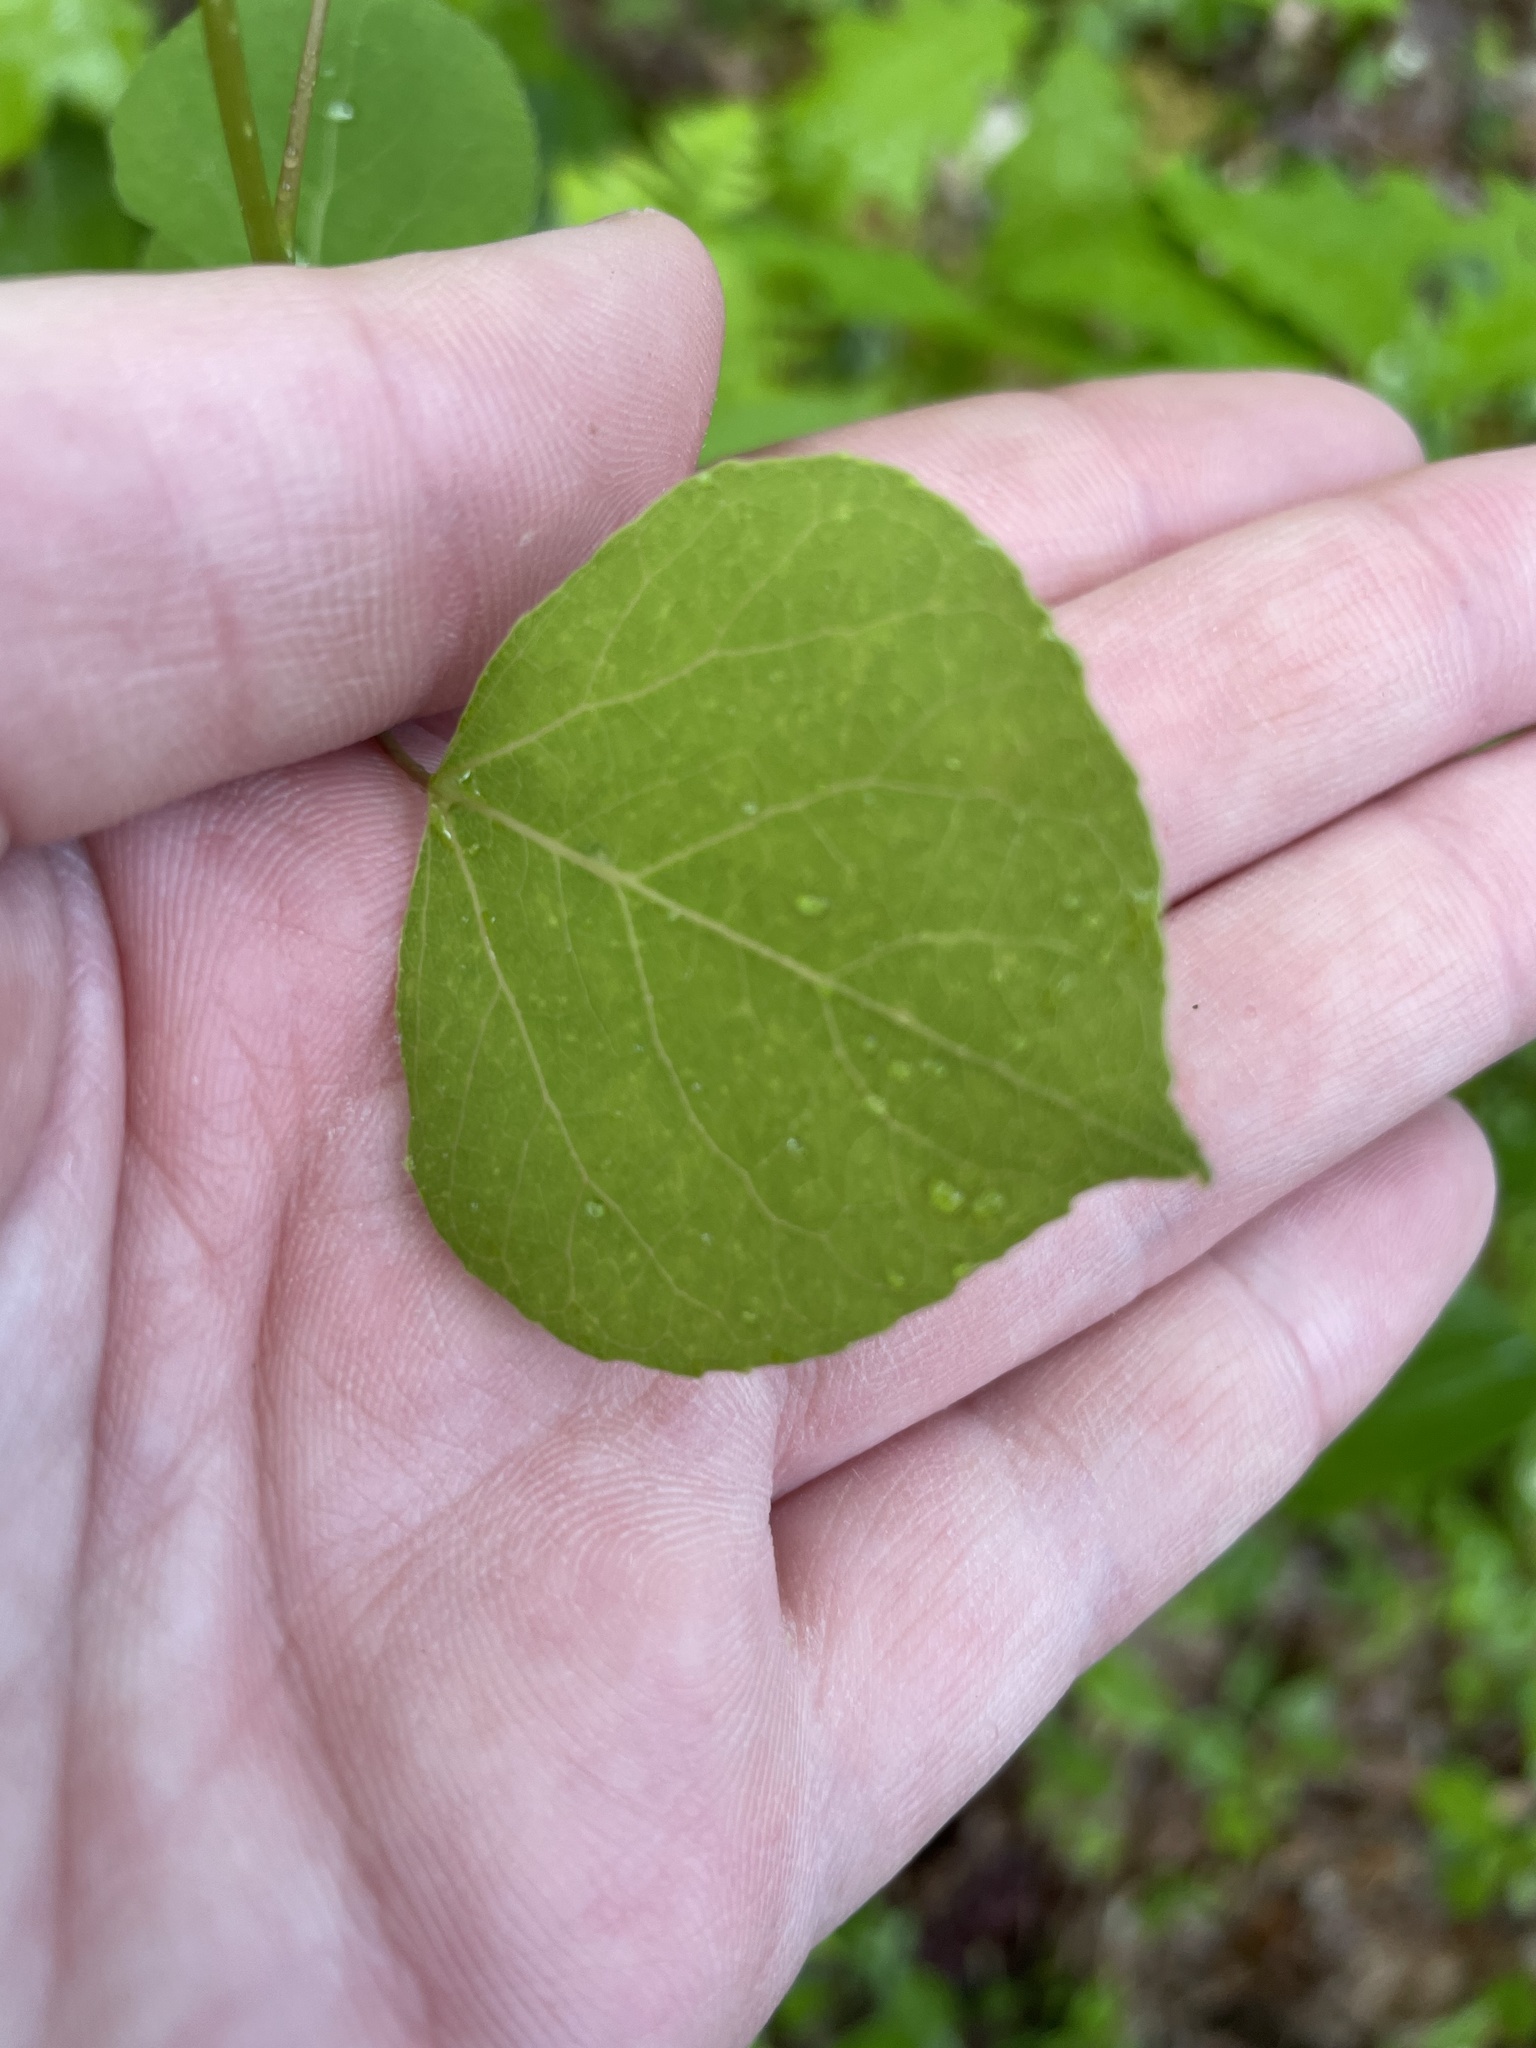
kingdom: Plantae
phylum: Tracheophyta
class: Magnoliopsida
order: Malpighiales
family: Salicaceae
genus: Populus
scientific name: Populus tremuloides
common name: Quaking aspen
